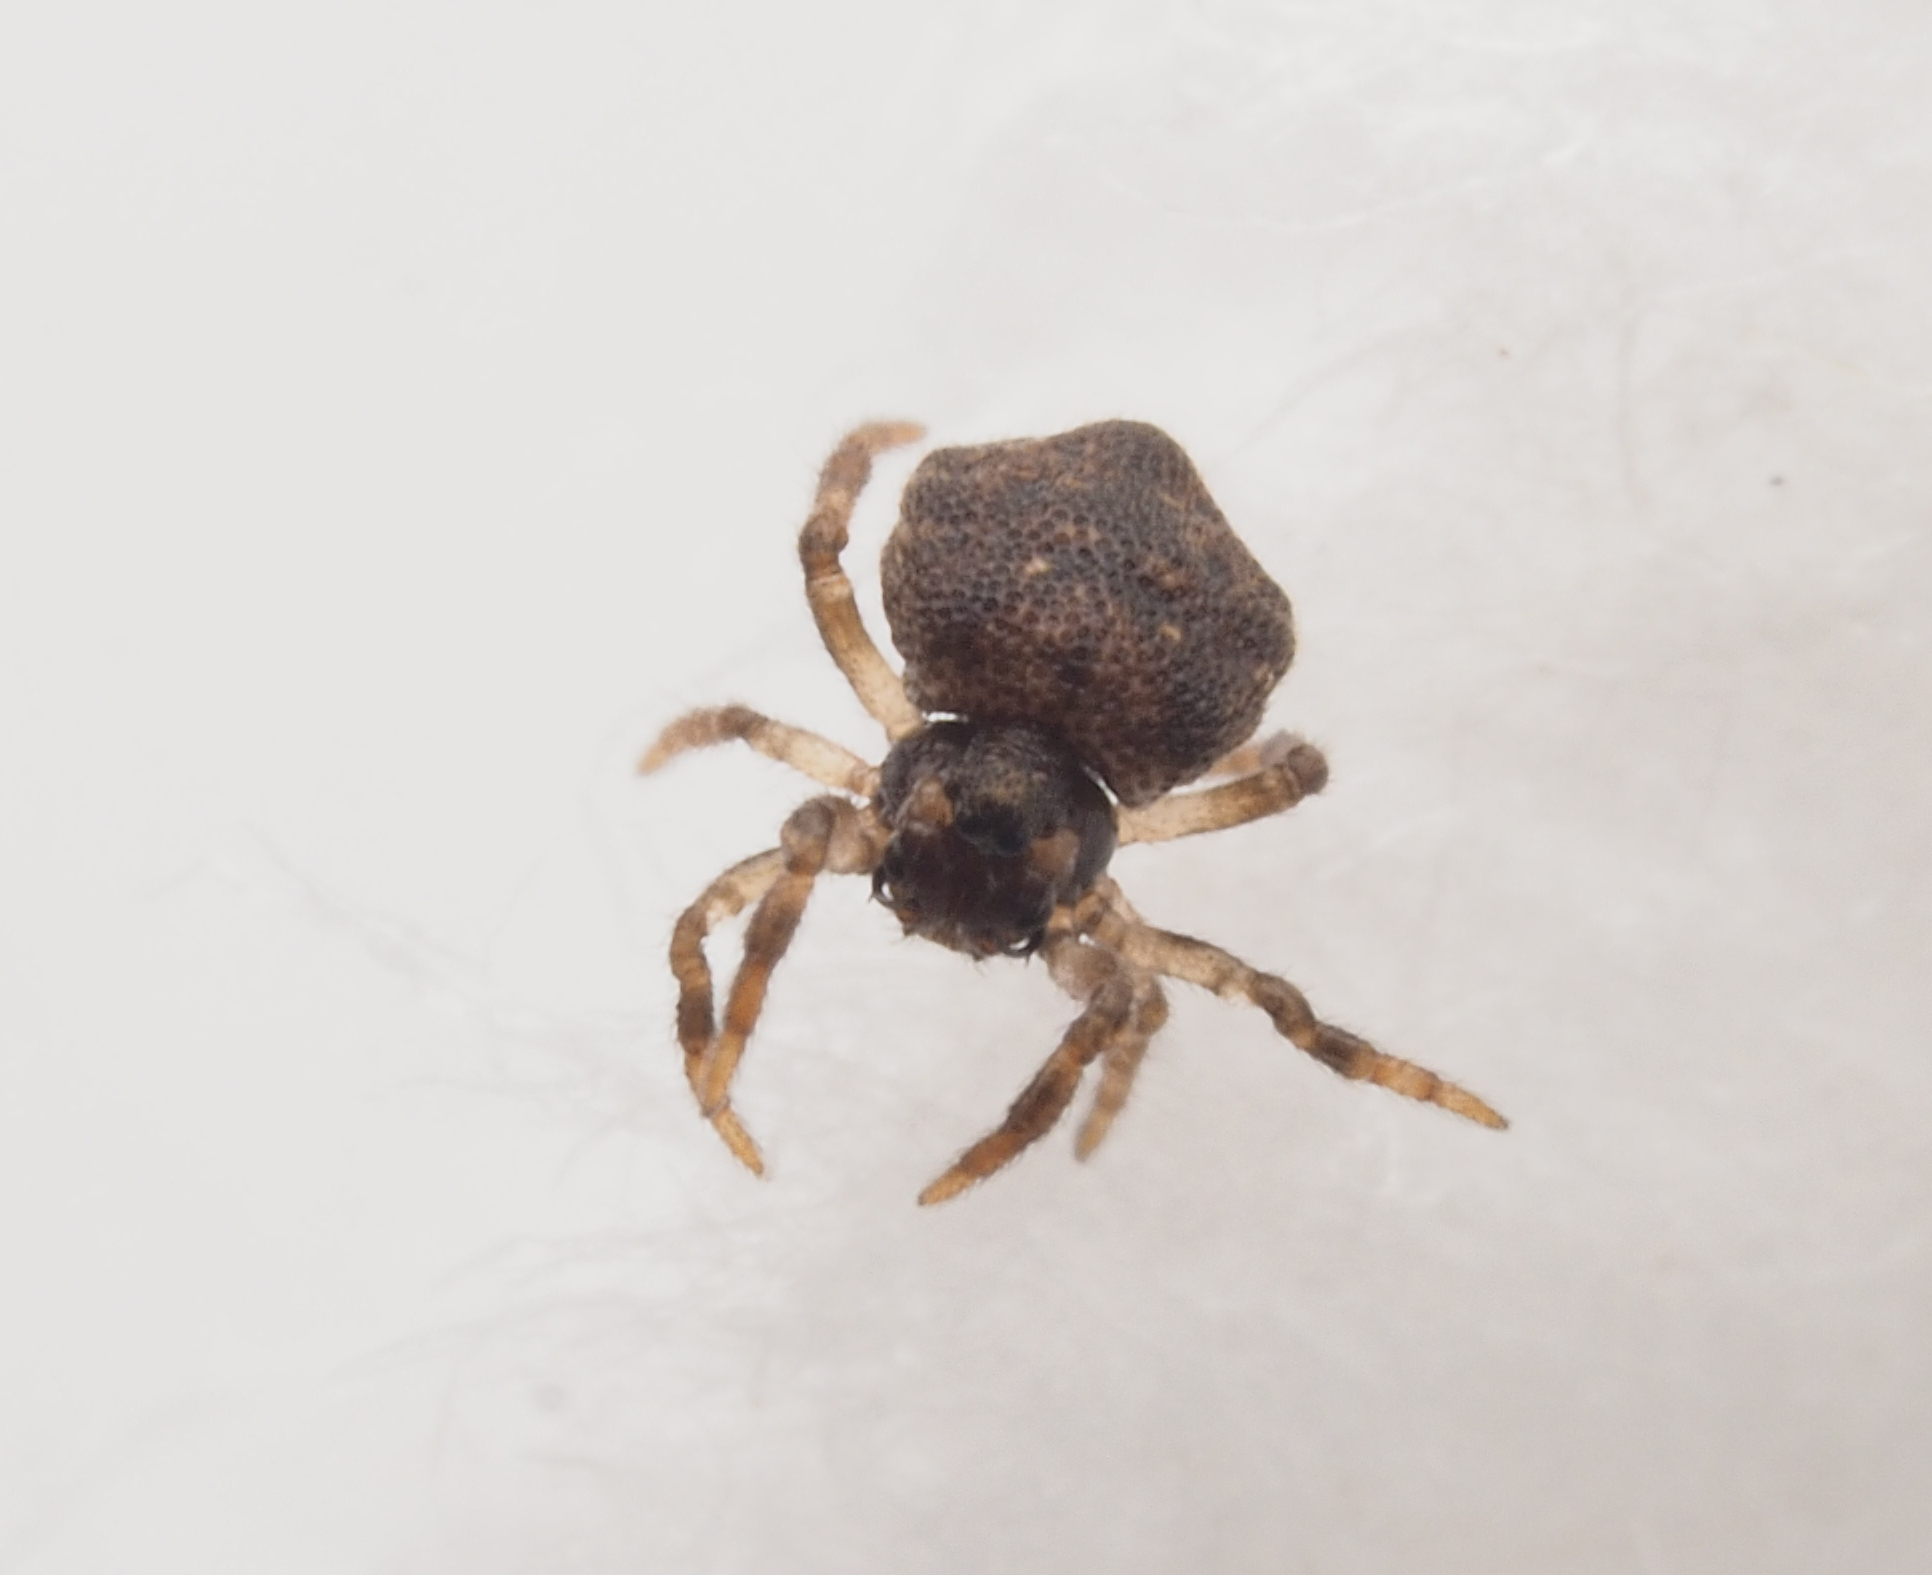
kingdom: Animalia
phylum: Arthropoda
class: Arachnida
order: Araneae
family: Theridiidae
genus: Phoroncidia
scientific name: Phoroncidia trituberculata
